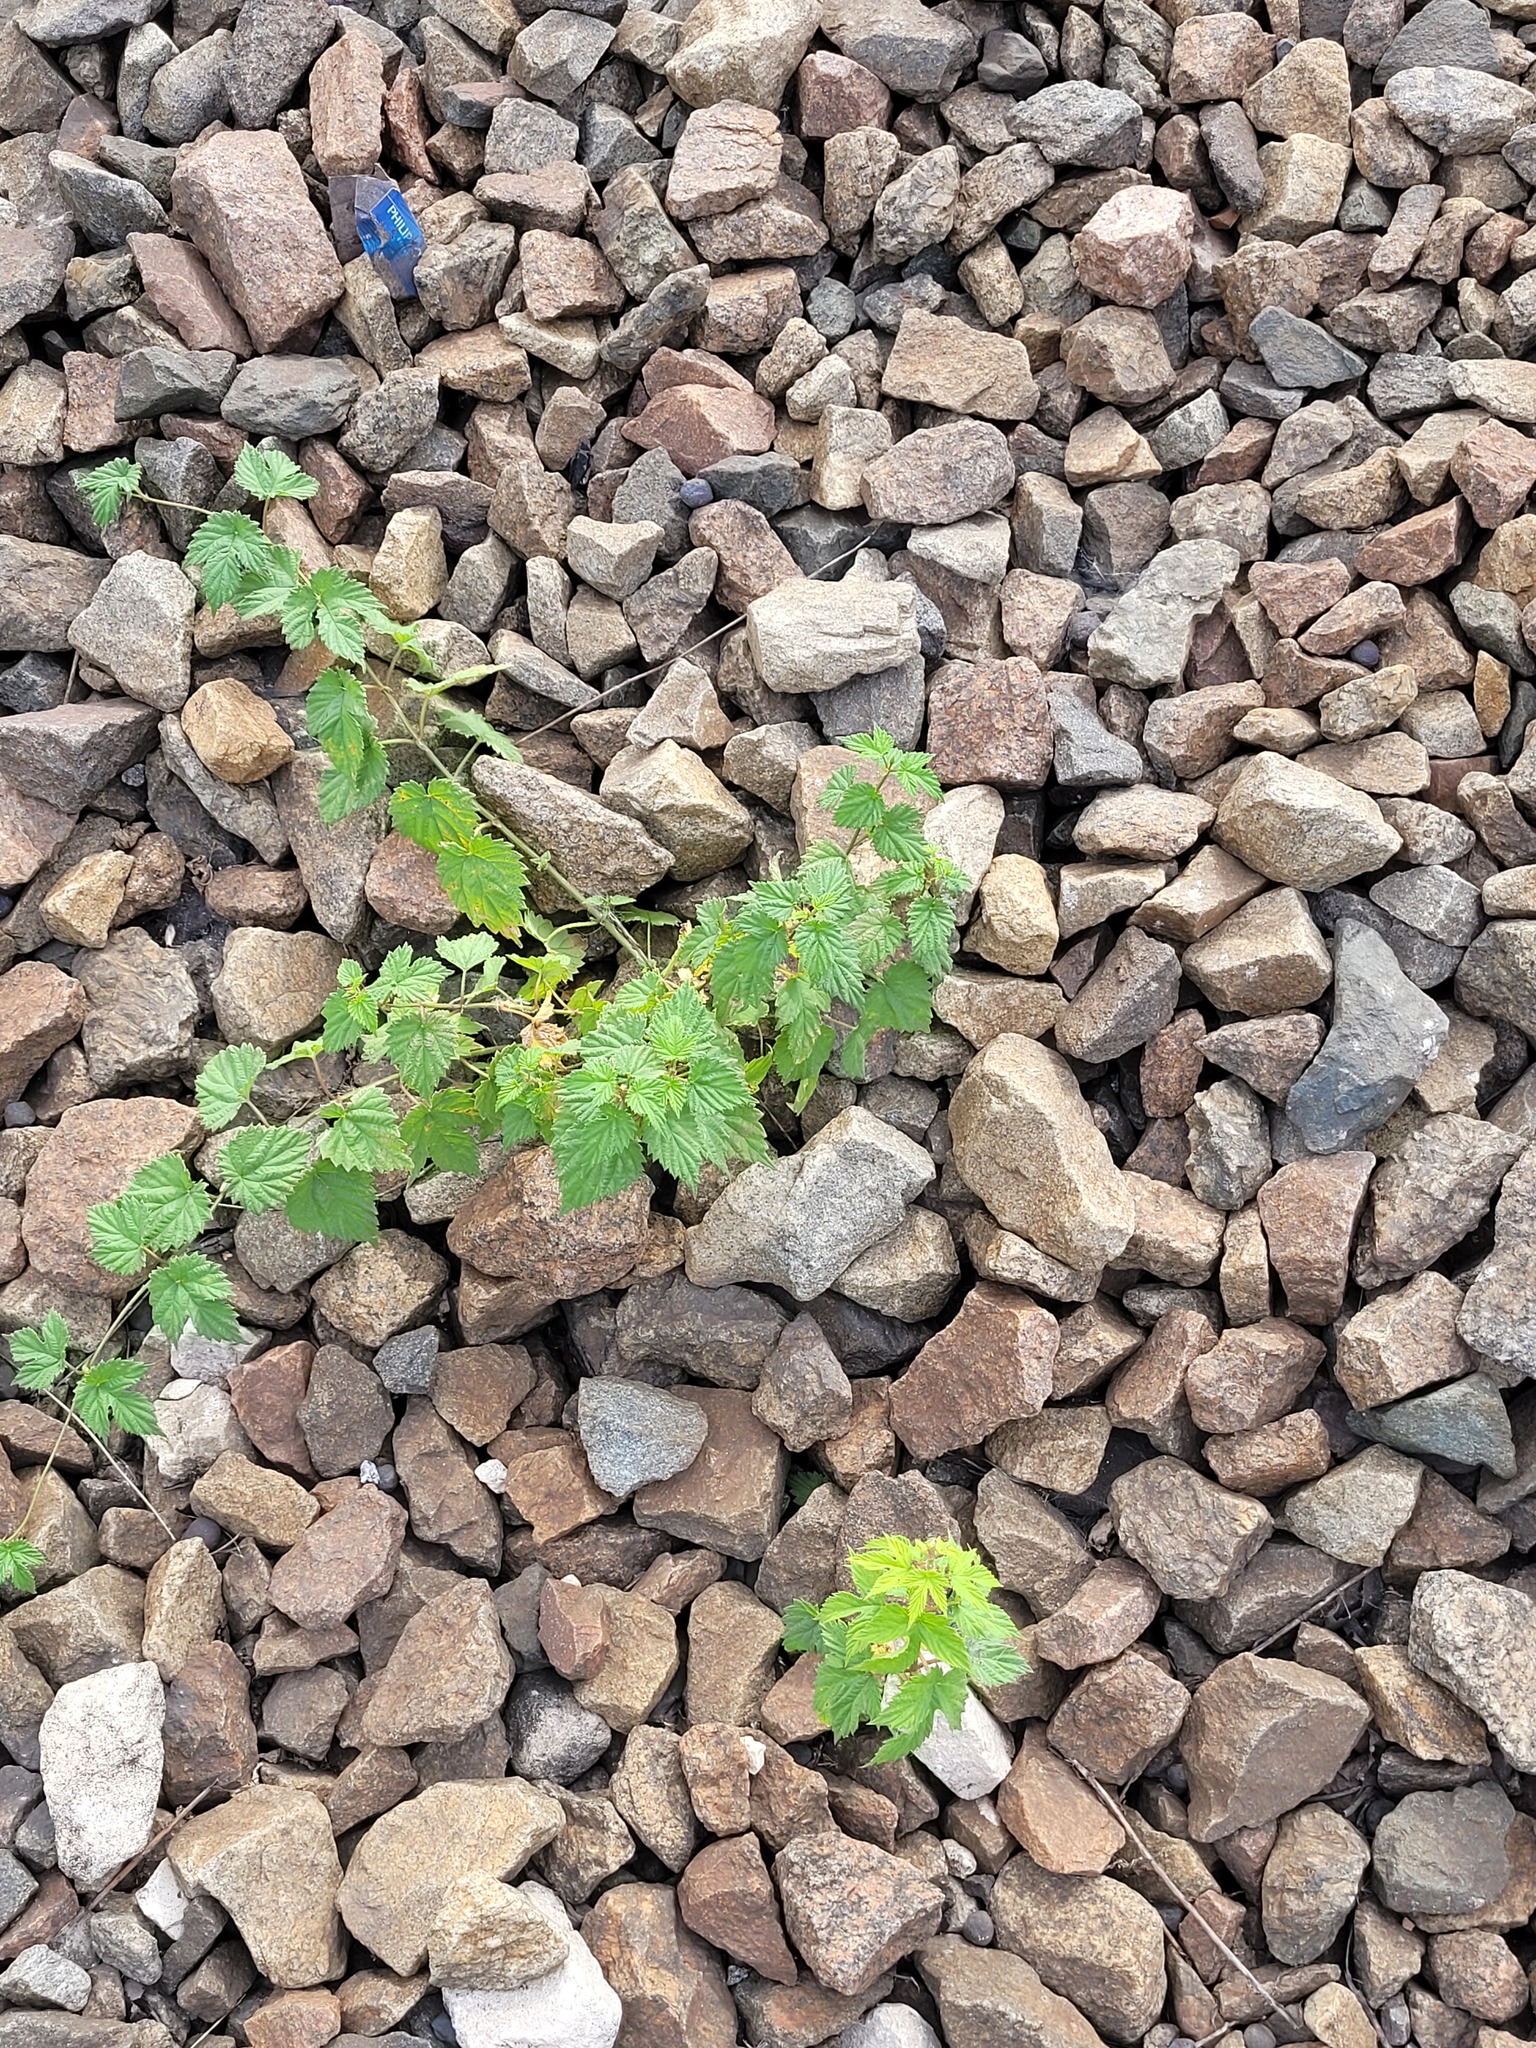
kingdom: Plantae
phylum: Tracheophyta
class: Magnoliopsida
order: Rosales
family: Cannabaceae
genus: Humulus
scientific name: Humulus lupulus
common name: Hop
